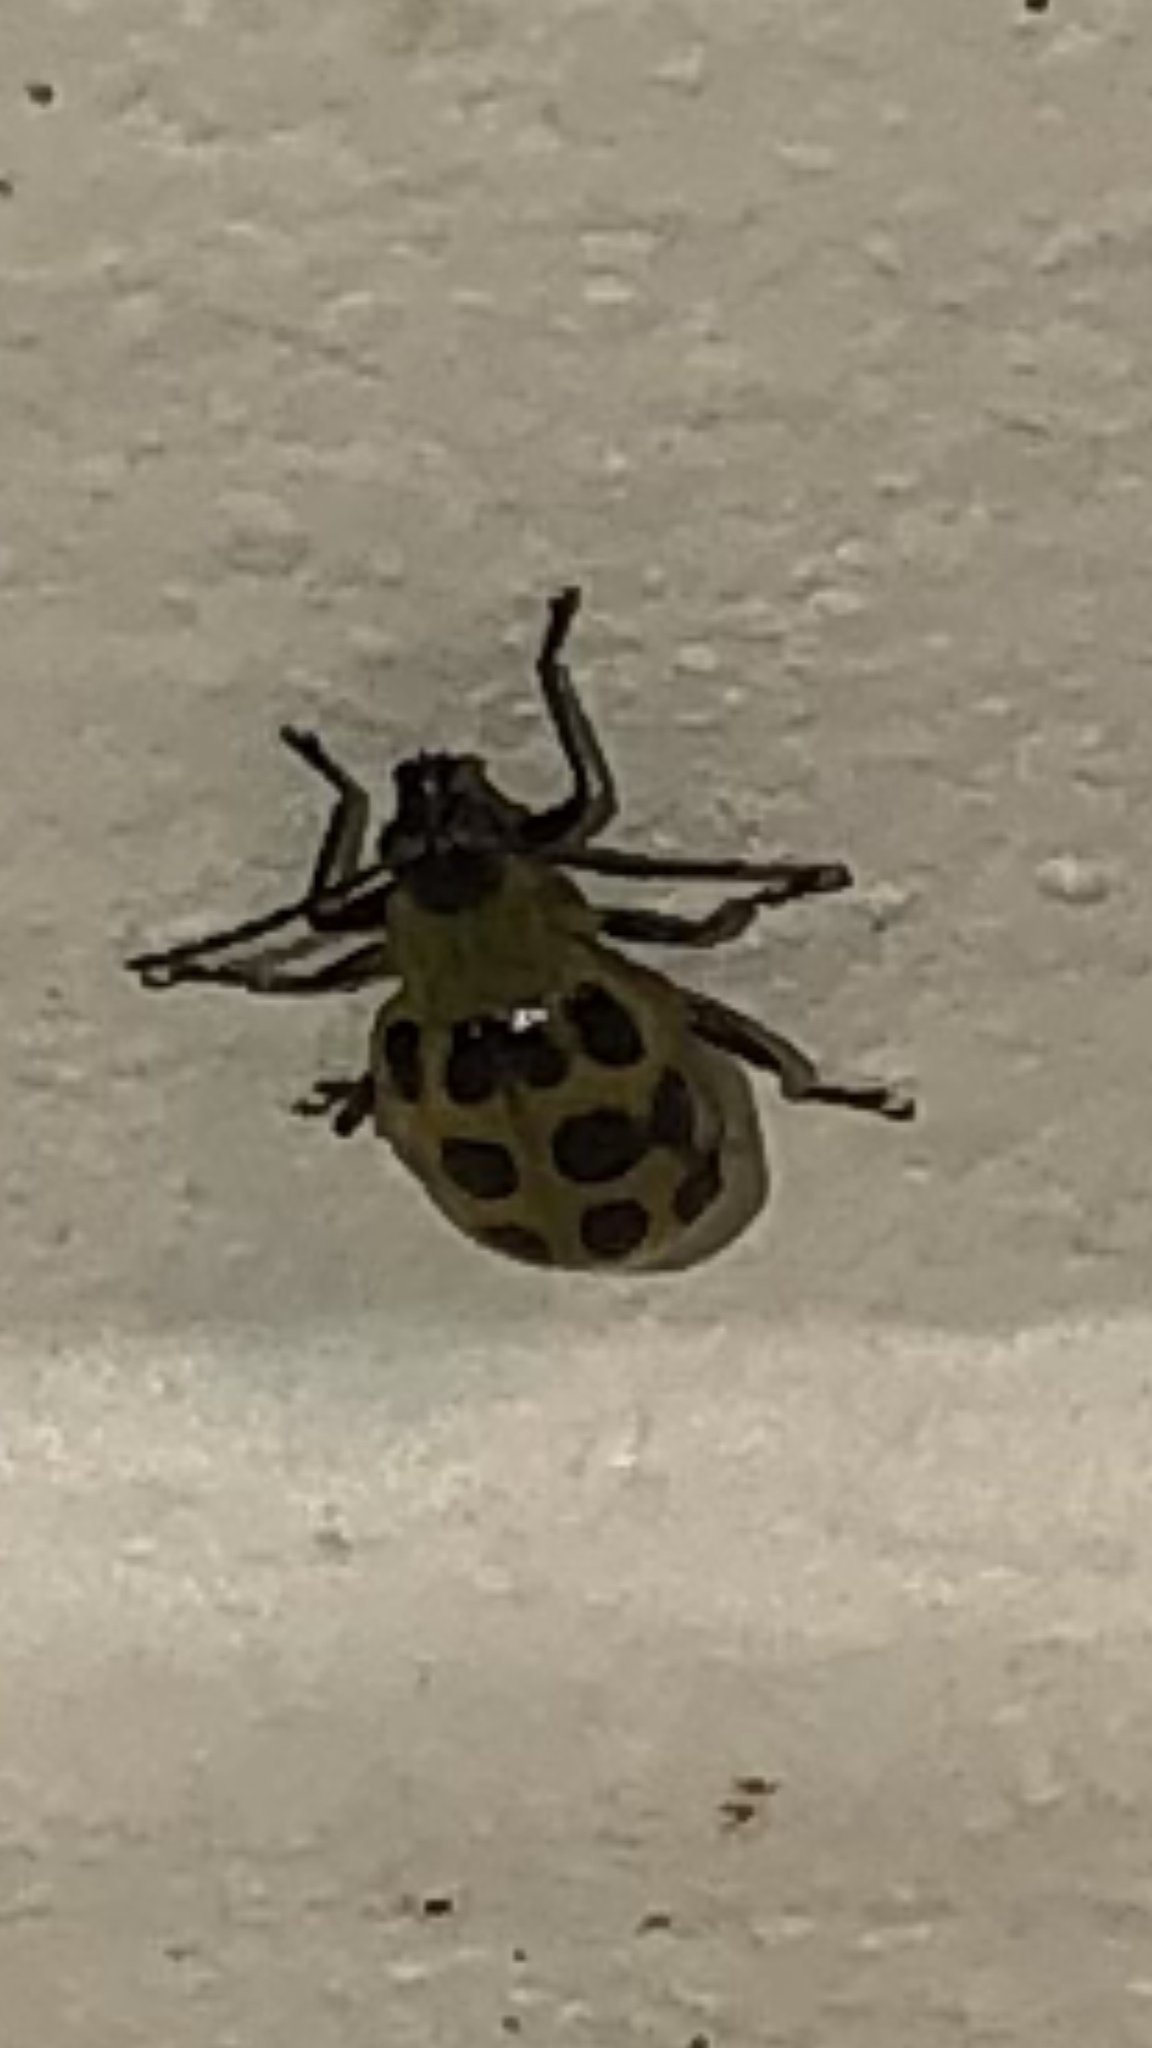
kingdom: Animalia
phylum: Arthropoda
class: Insecta
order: Coleoptera
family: Chrysomelidae
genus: Diabrotica
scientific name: Diabrotica undecimpunctata
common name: Spotted cucumber beetle
